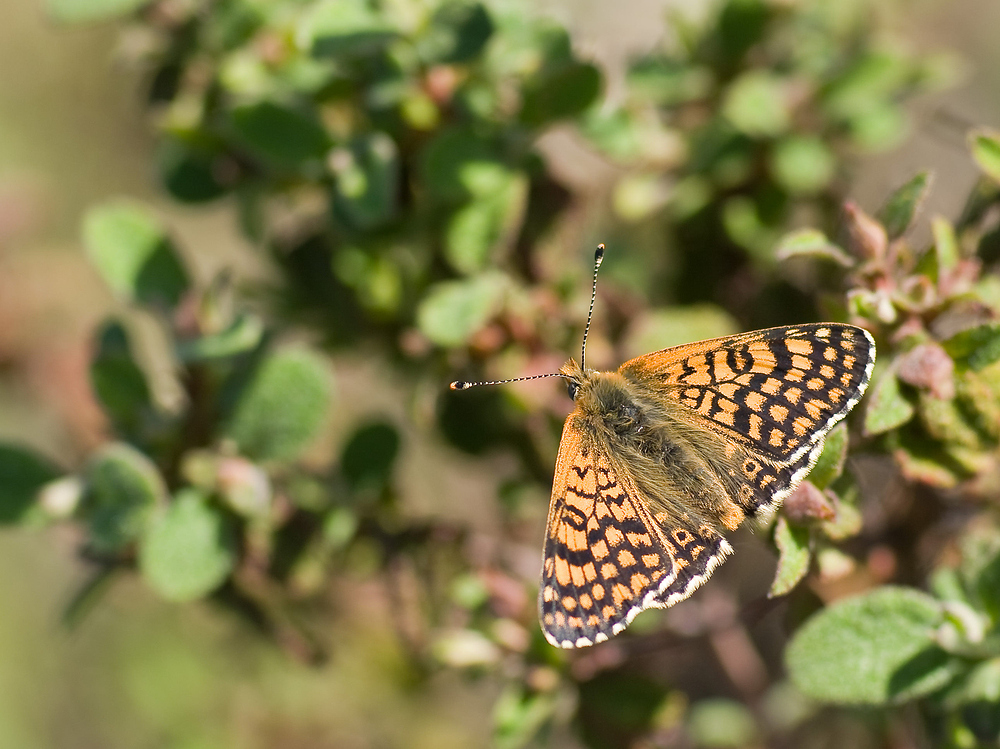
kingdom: Animalia
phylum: Arthropoda
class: Insecta
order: Lepidoptera
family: Nymphalidae
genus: Melitaea
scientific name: Melitaea cinxia
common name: Glanville fritillary
